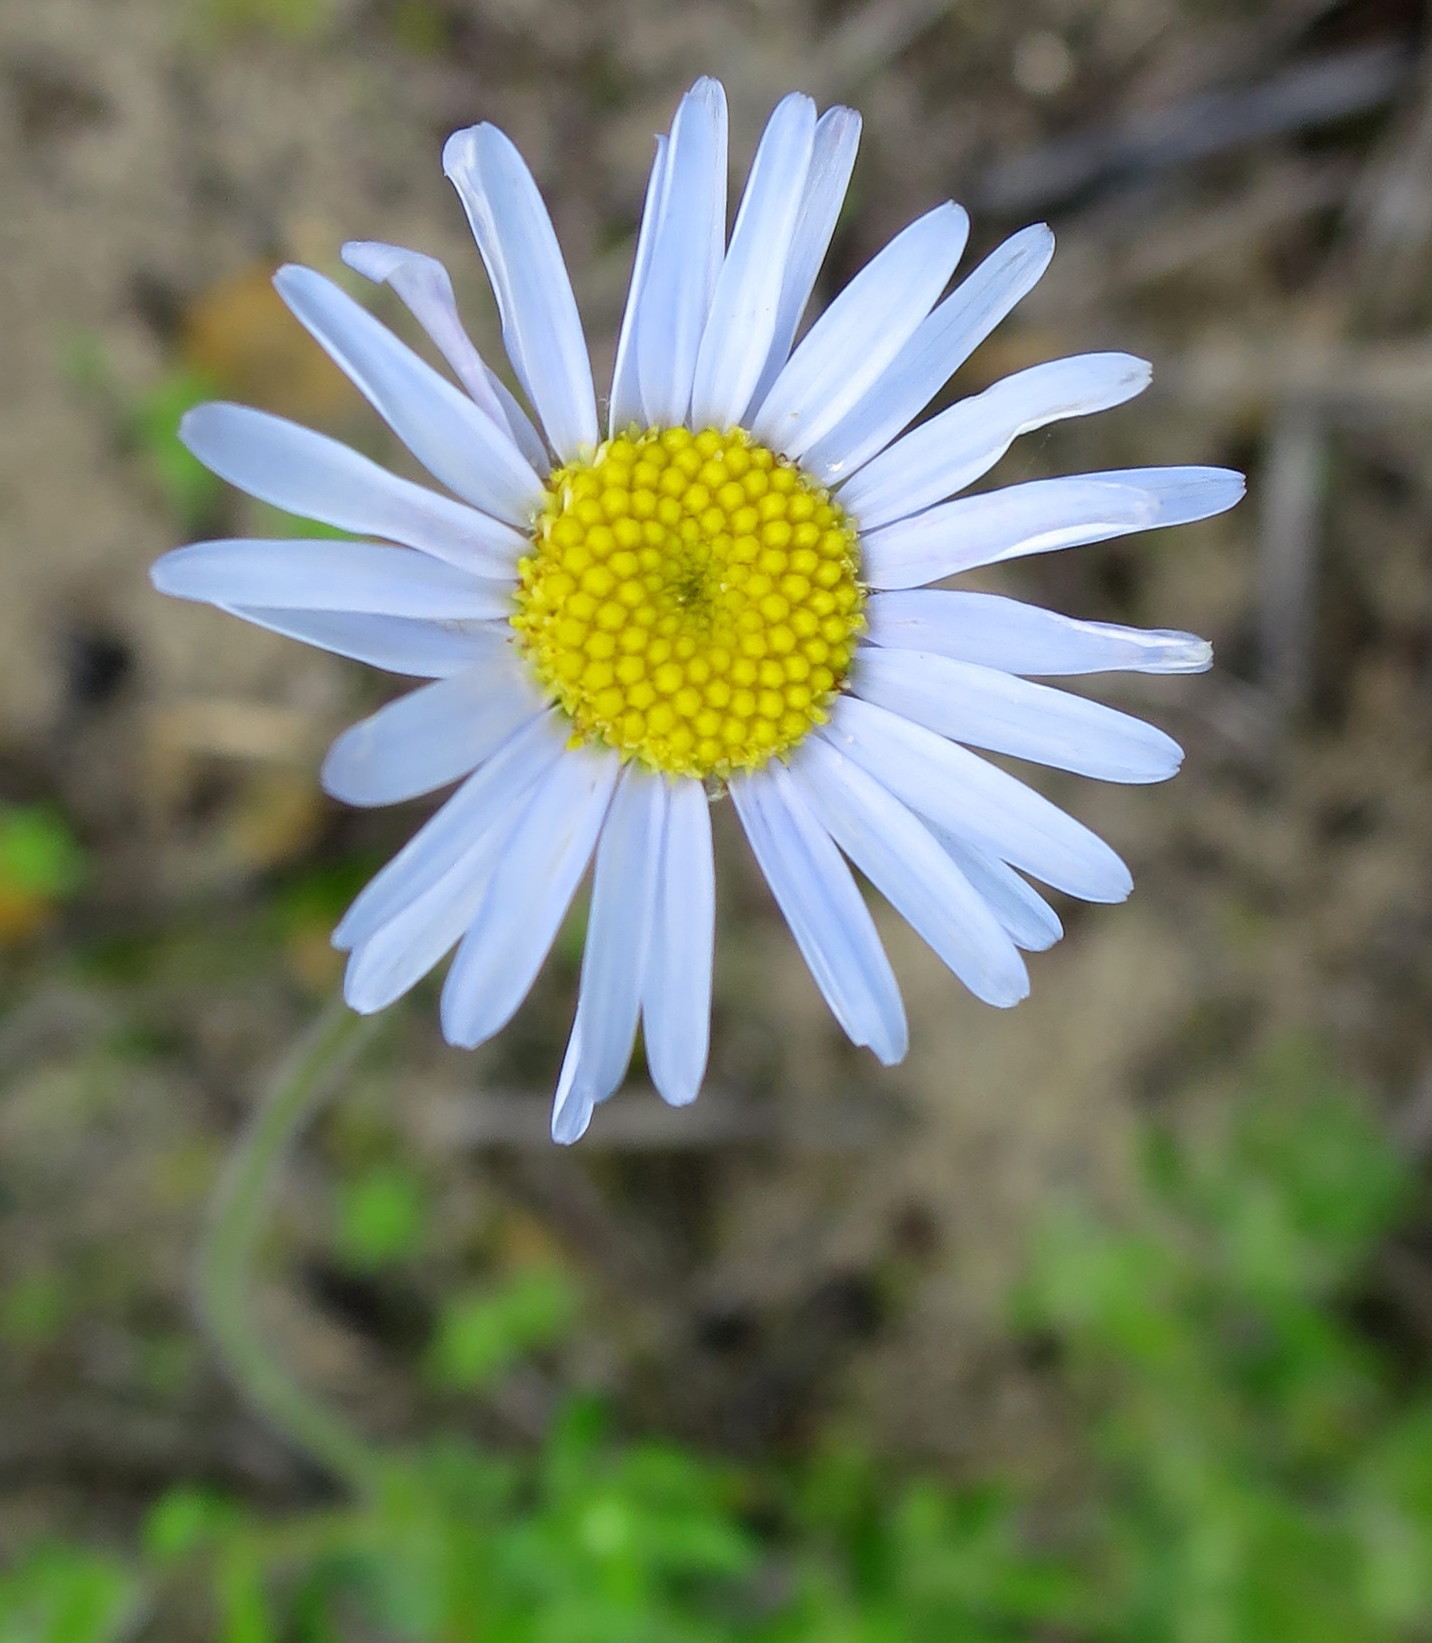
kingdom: Plantae
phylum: Tracheophyta
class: Magnoliopsida
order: Asterales
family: Asteraceae
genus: Felicia
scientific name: Felicia amoena
